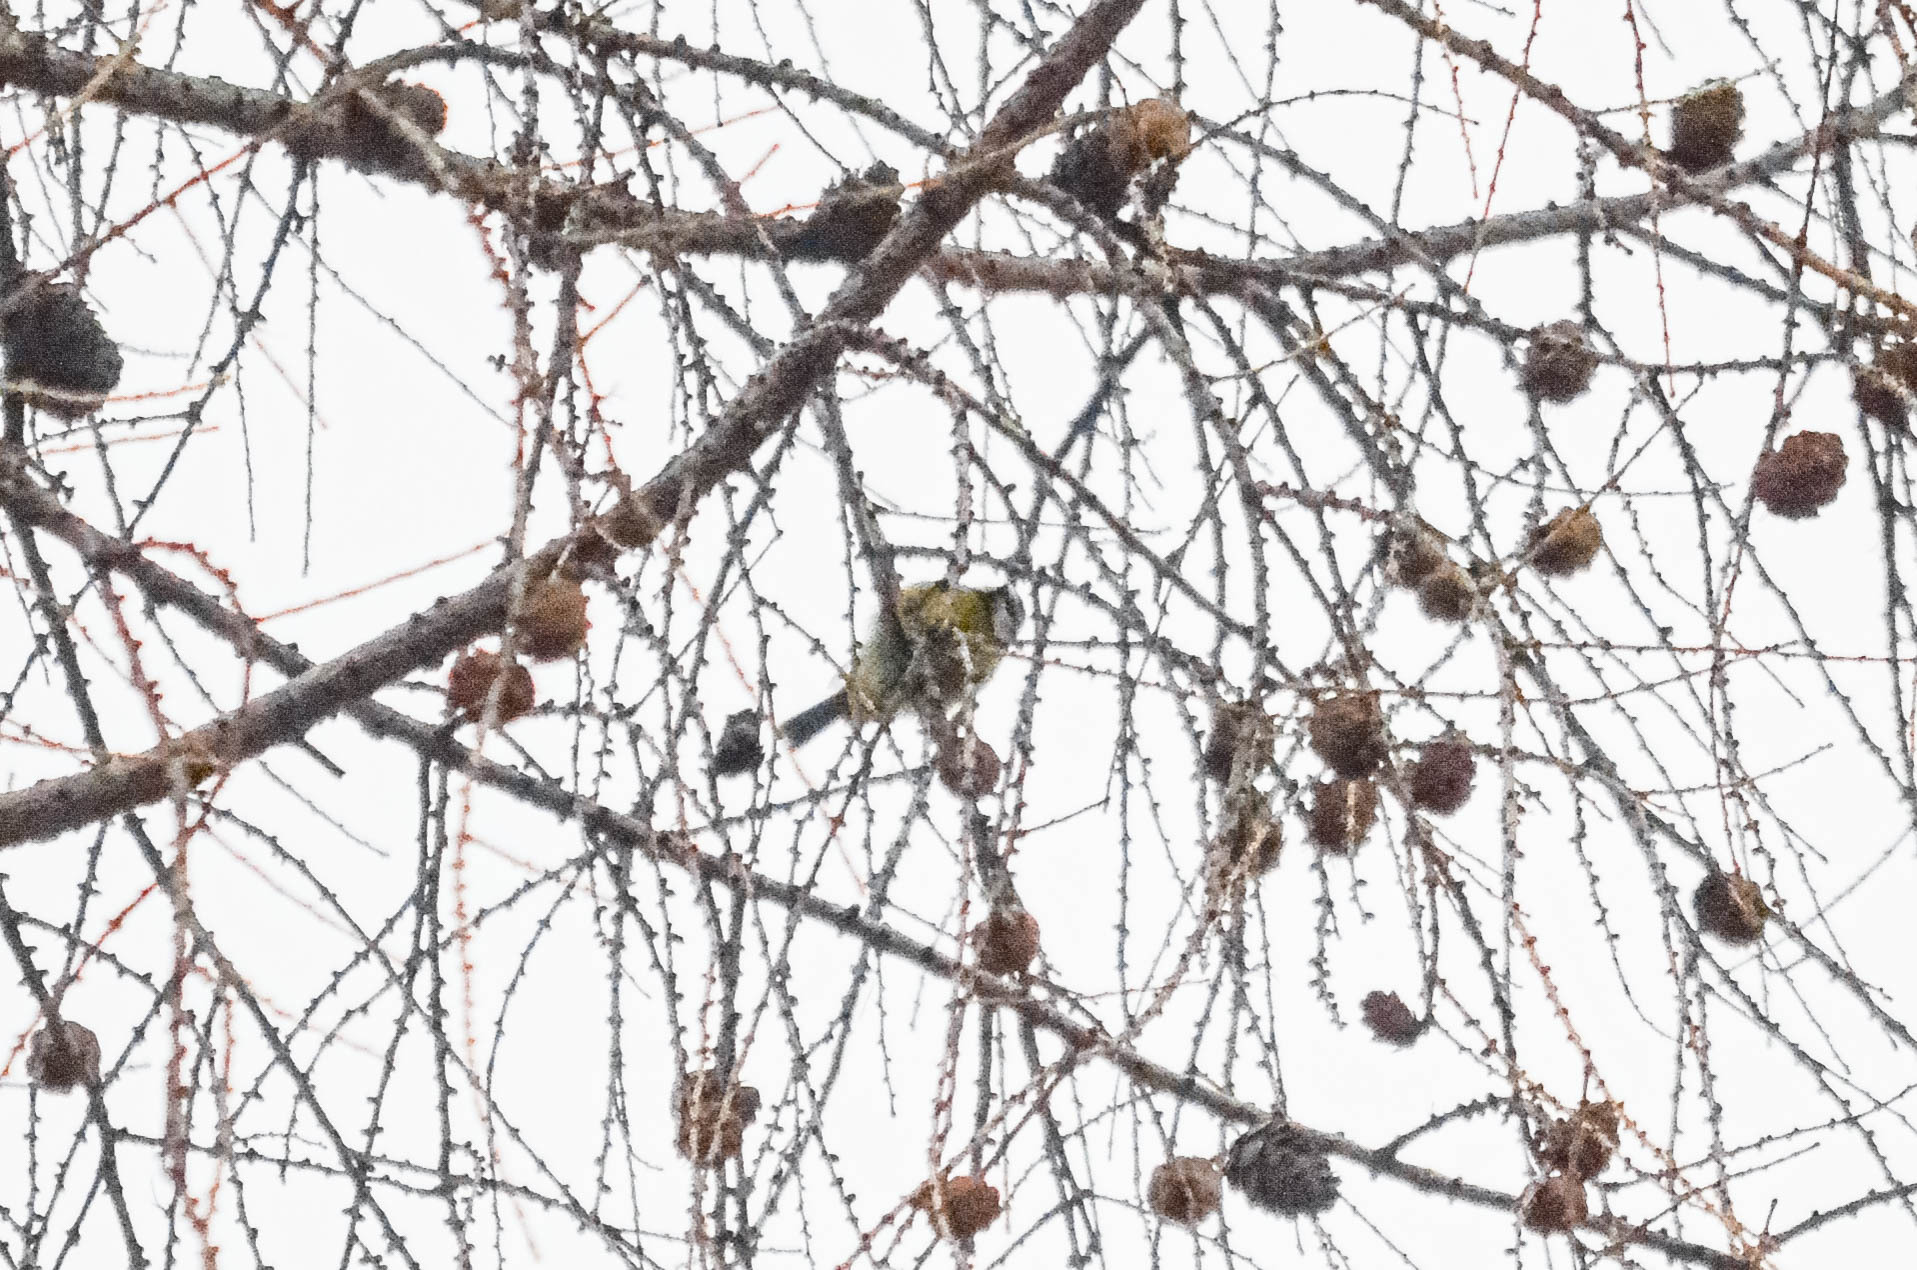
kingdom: Animalia
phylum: Chordata
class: Aves
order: Passeriformes
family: Paridae
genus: Cyanistes
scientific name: Cyanistes caeruleus
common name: Eurasian blue tit
